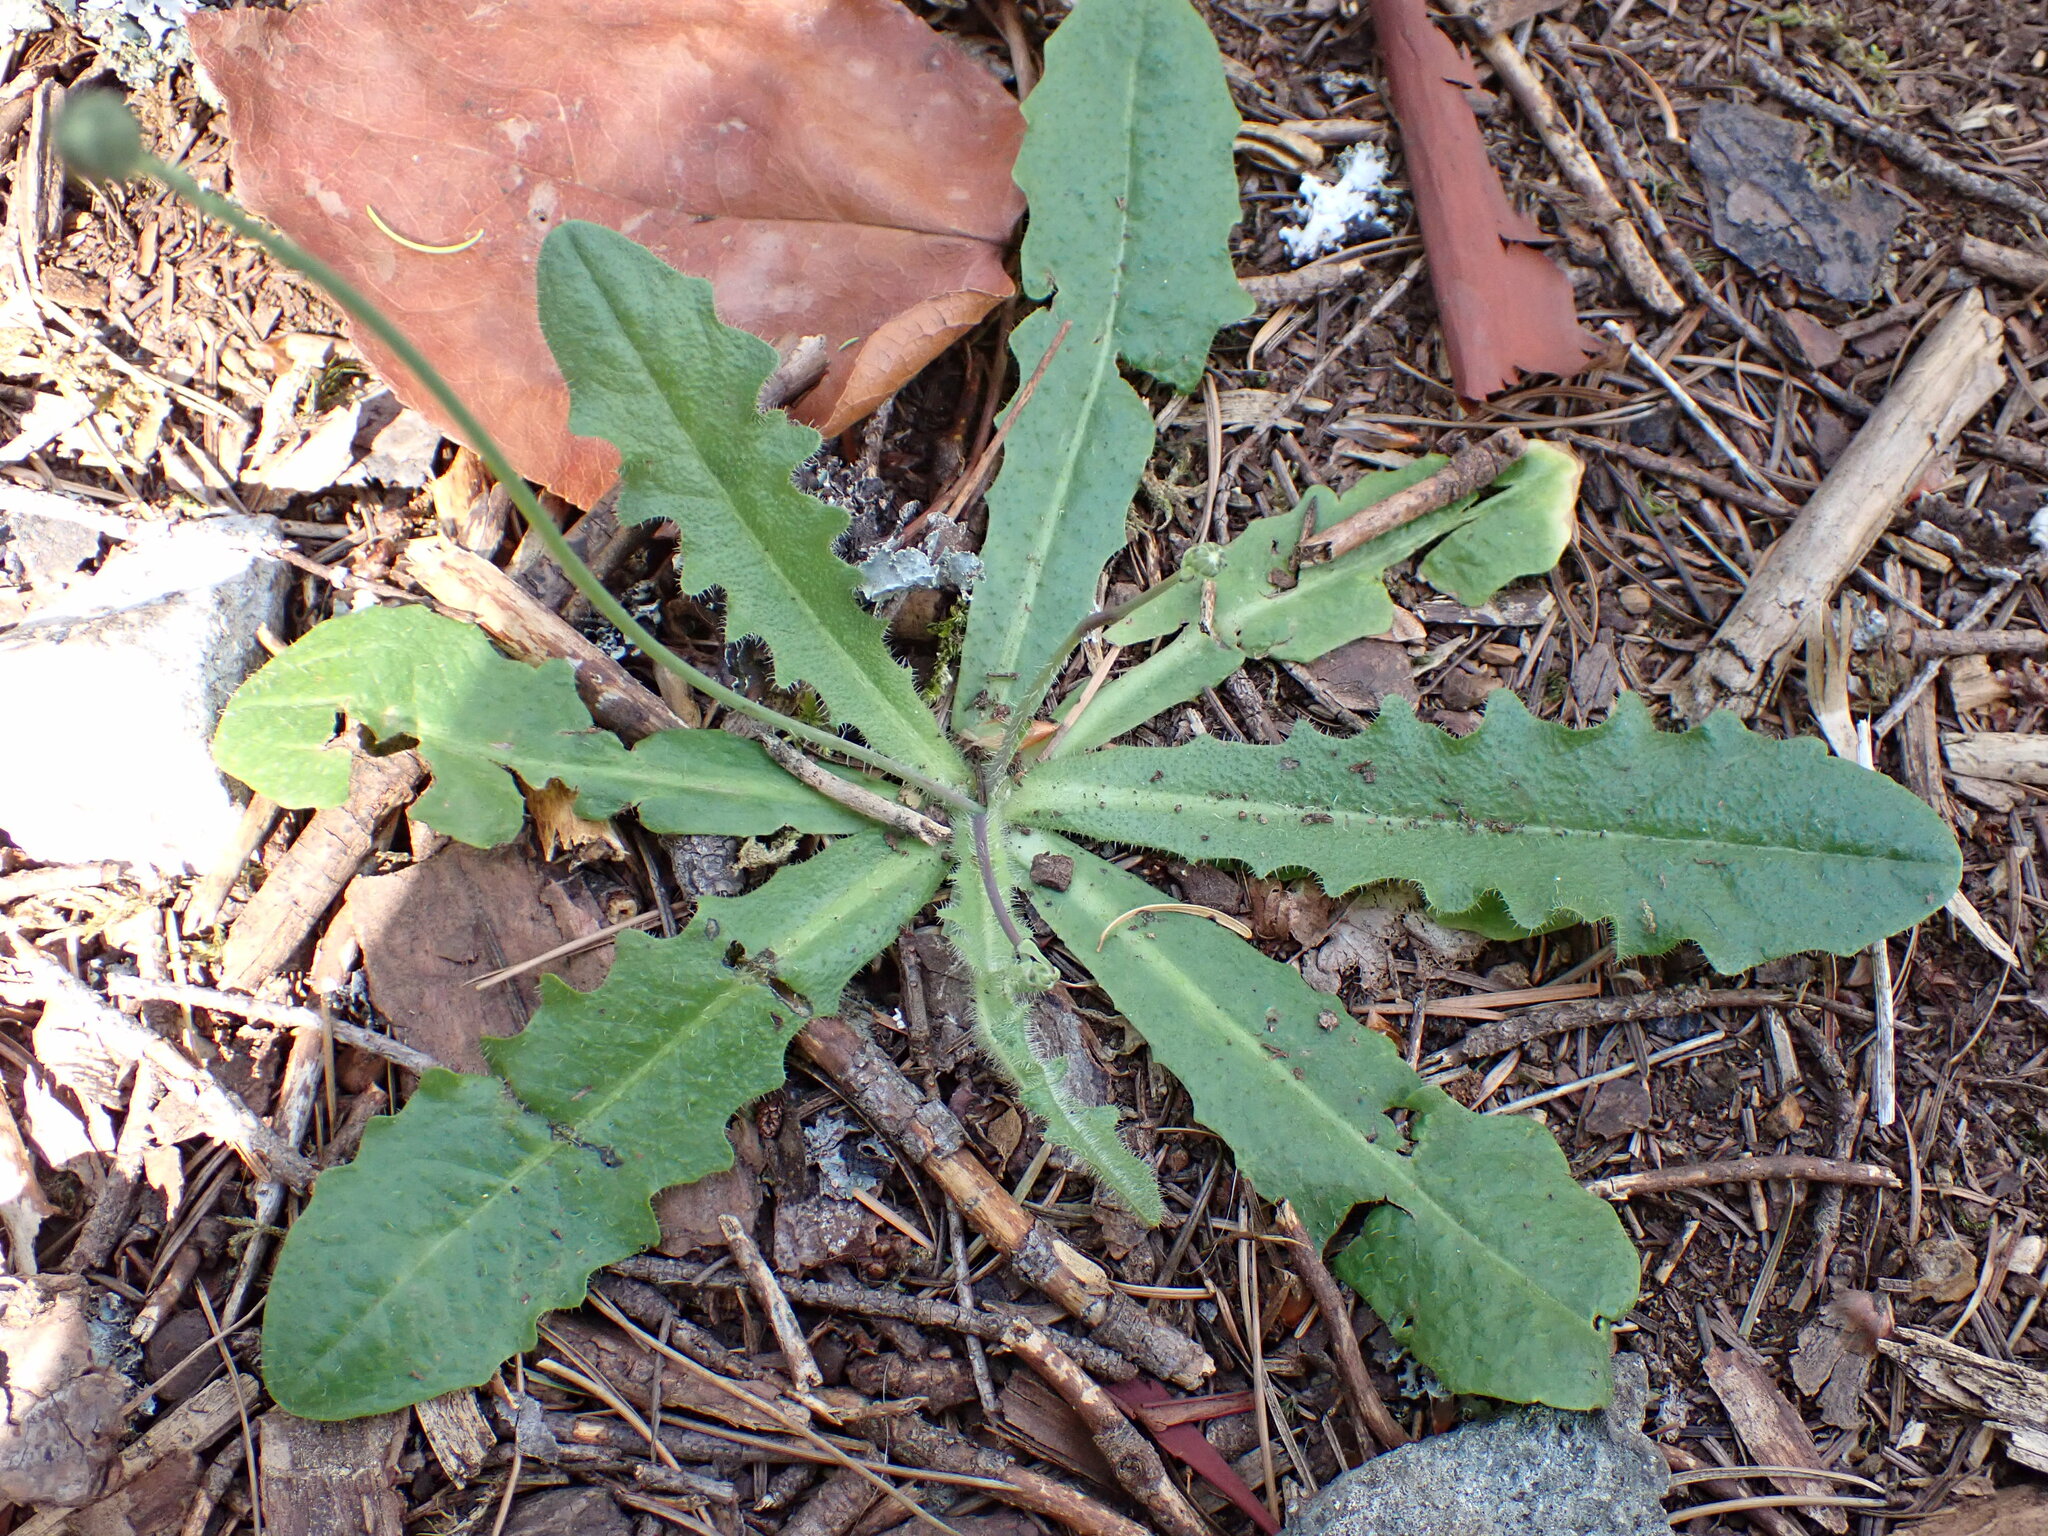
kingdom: Plantae
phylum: Tracheophyta
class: Magnoliopsida
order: Asterales
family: Asteraceae
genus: Hypochaeris
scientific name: Hypochaeris radicata
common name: Flatweed
